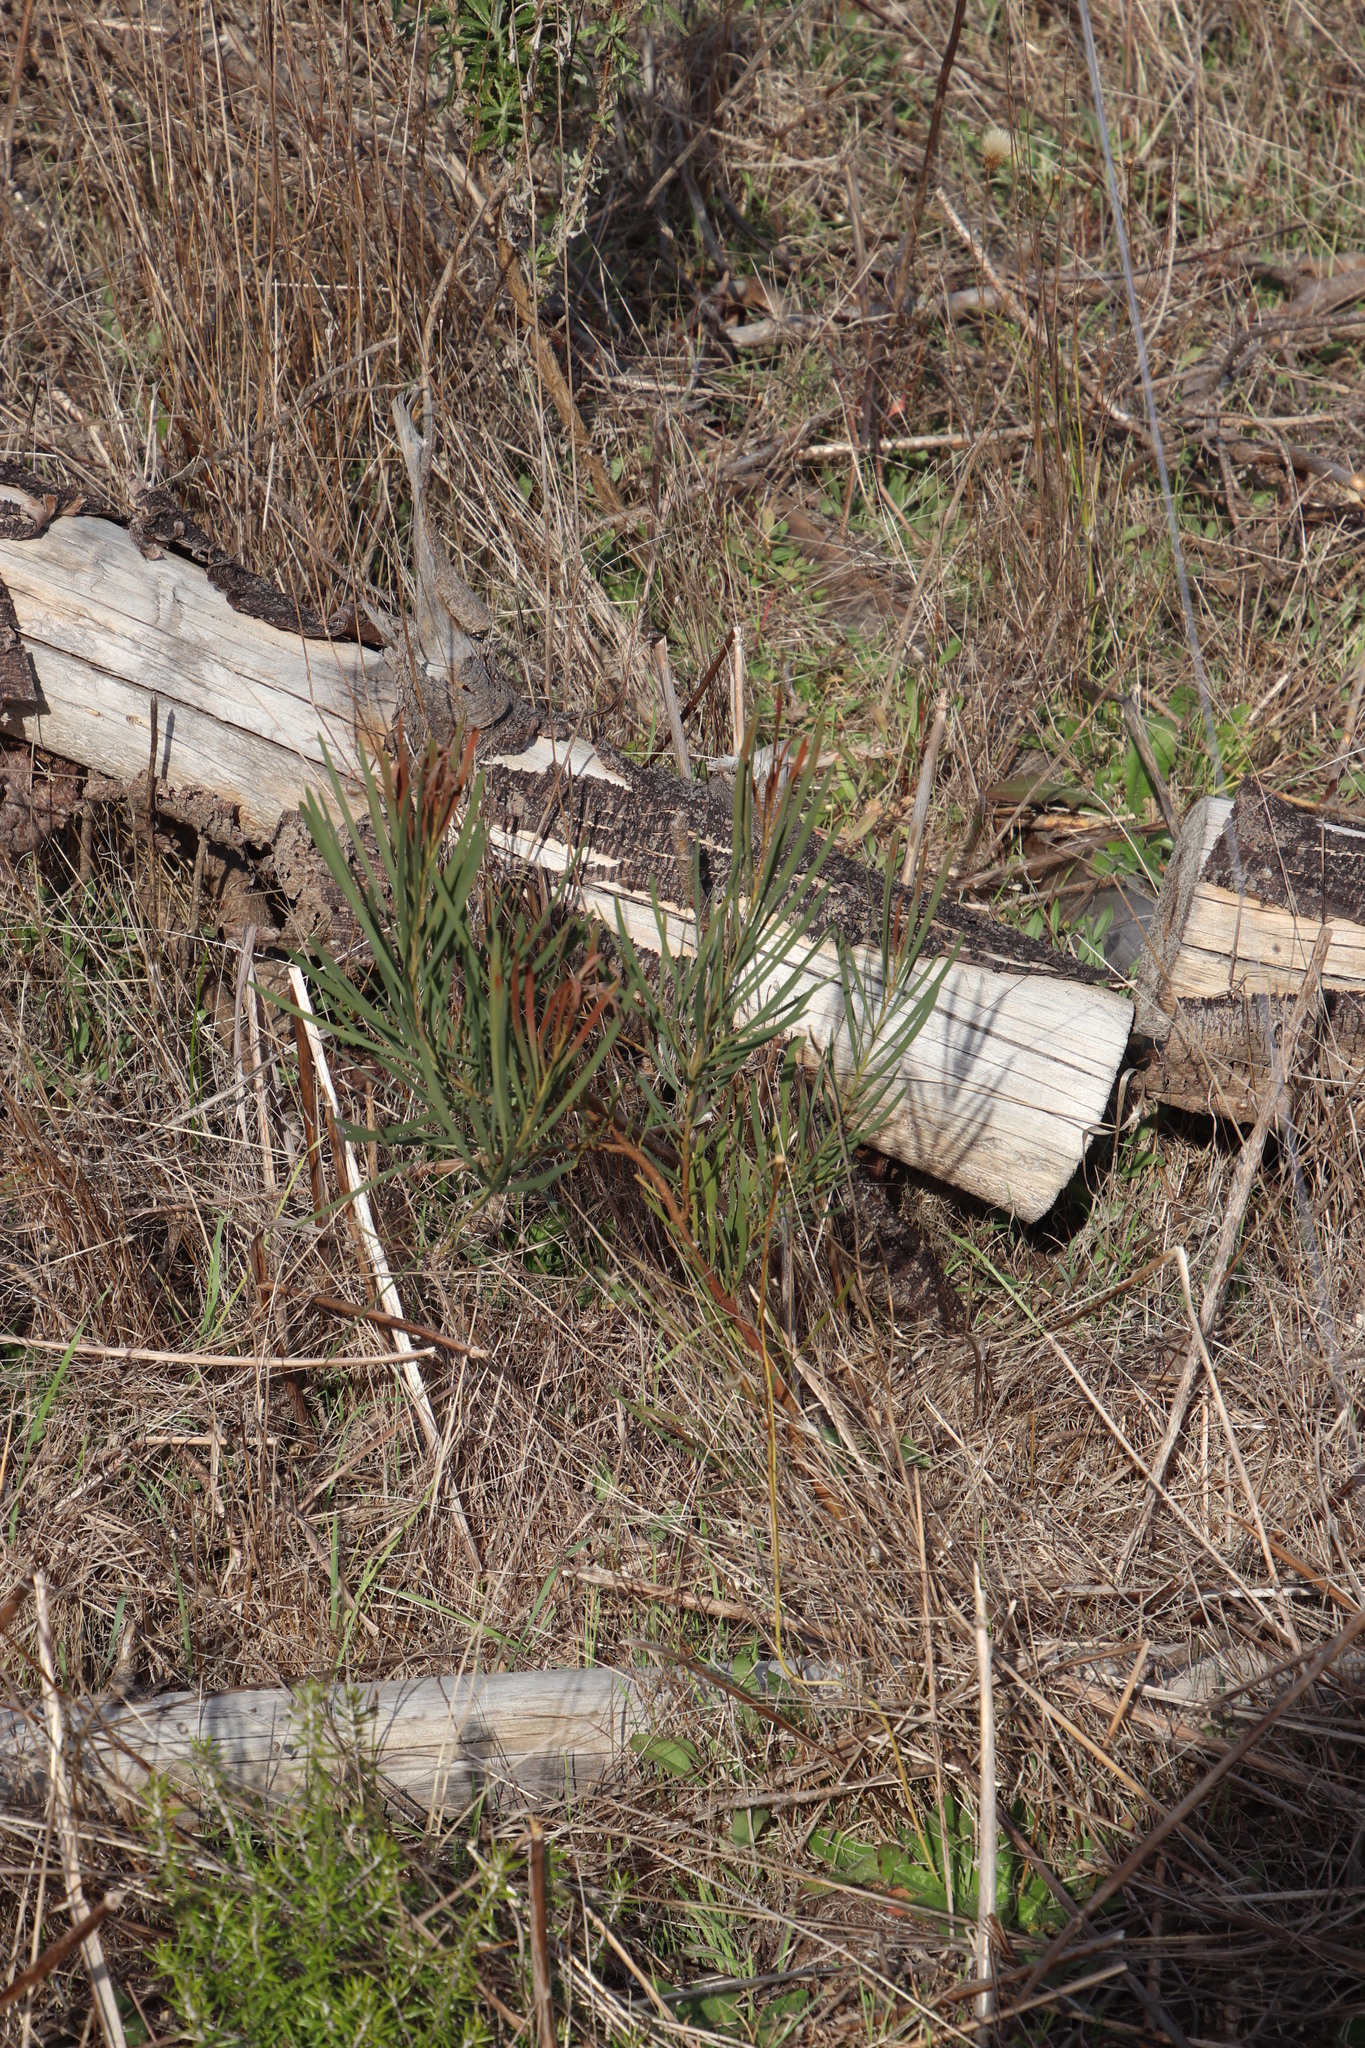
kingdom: Plantae
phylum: Tracheophyta
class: Magnoliopsida
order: Fabales
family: Fabaceae
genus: Acacia
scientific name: Acacia provincialis
